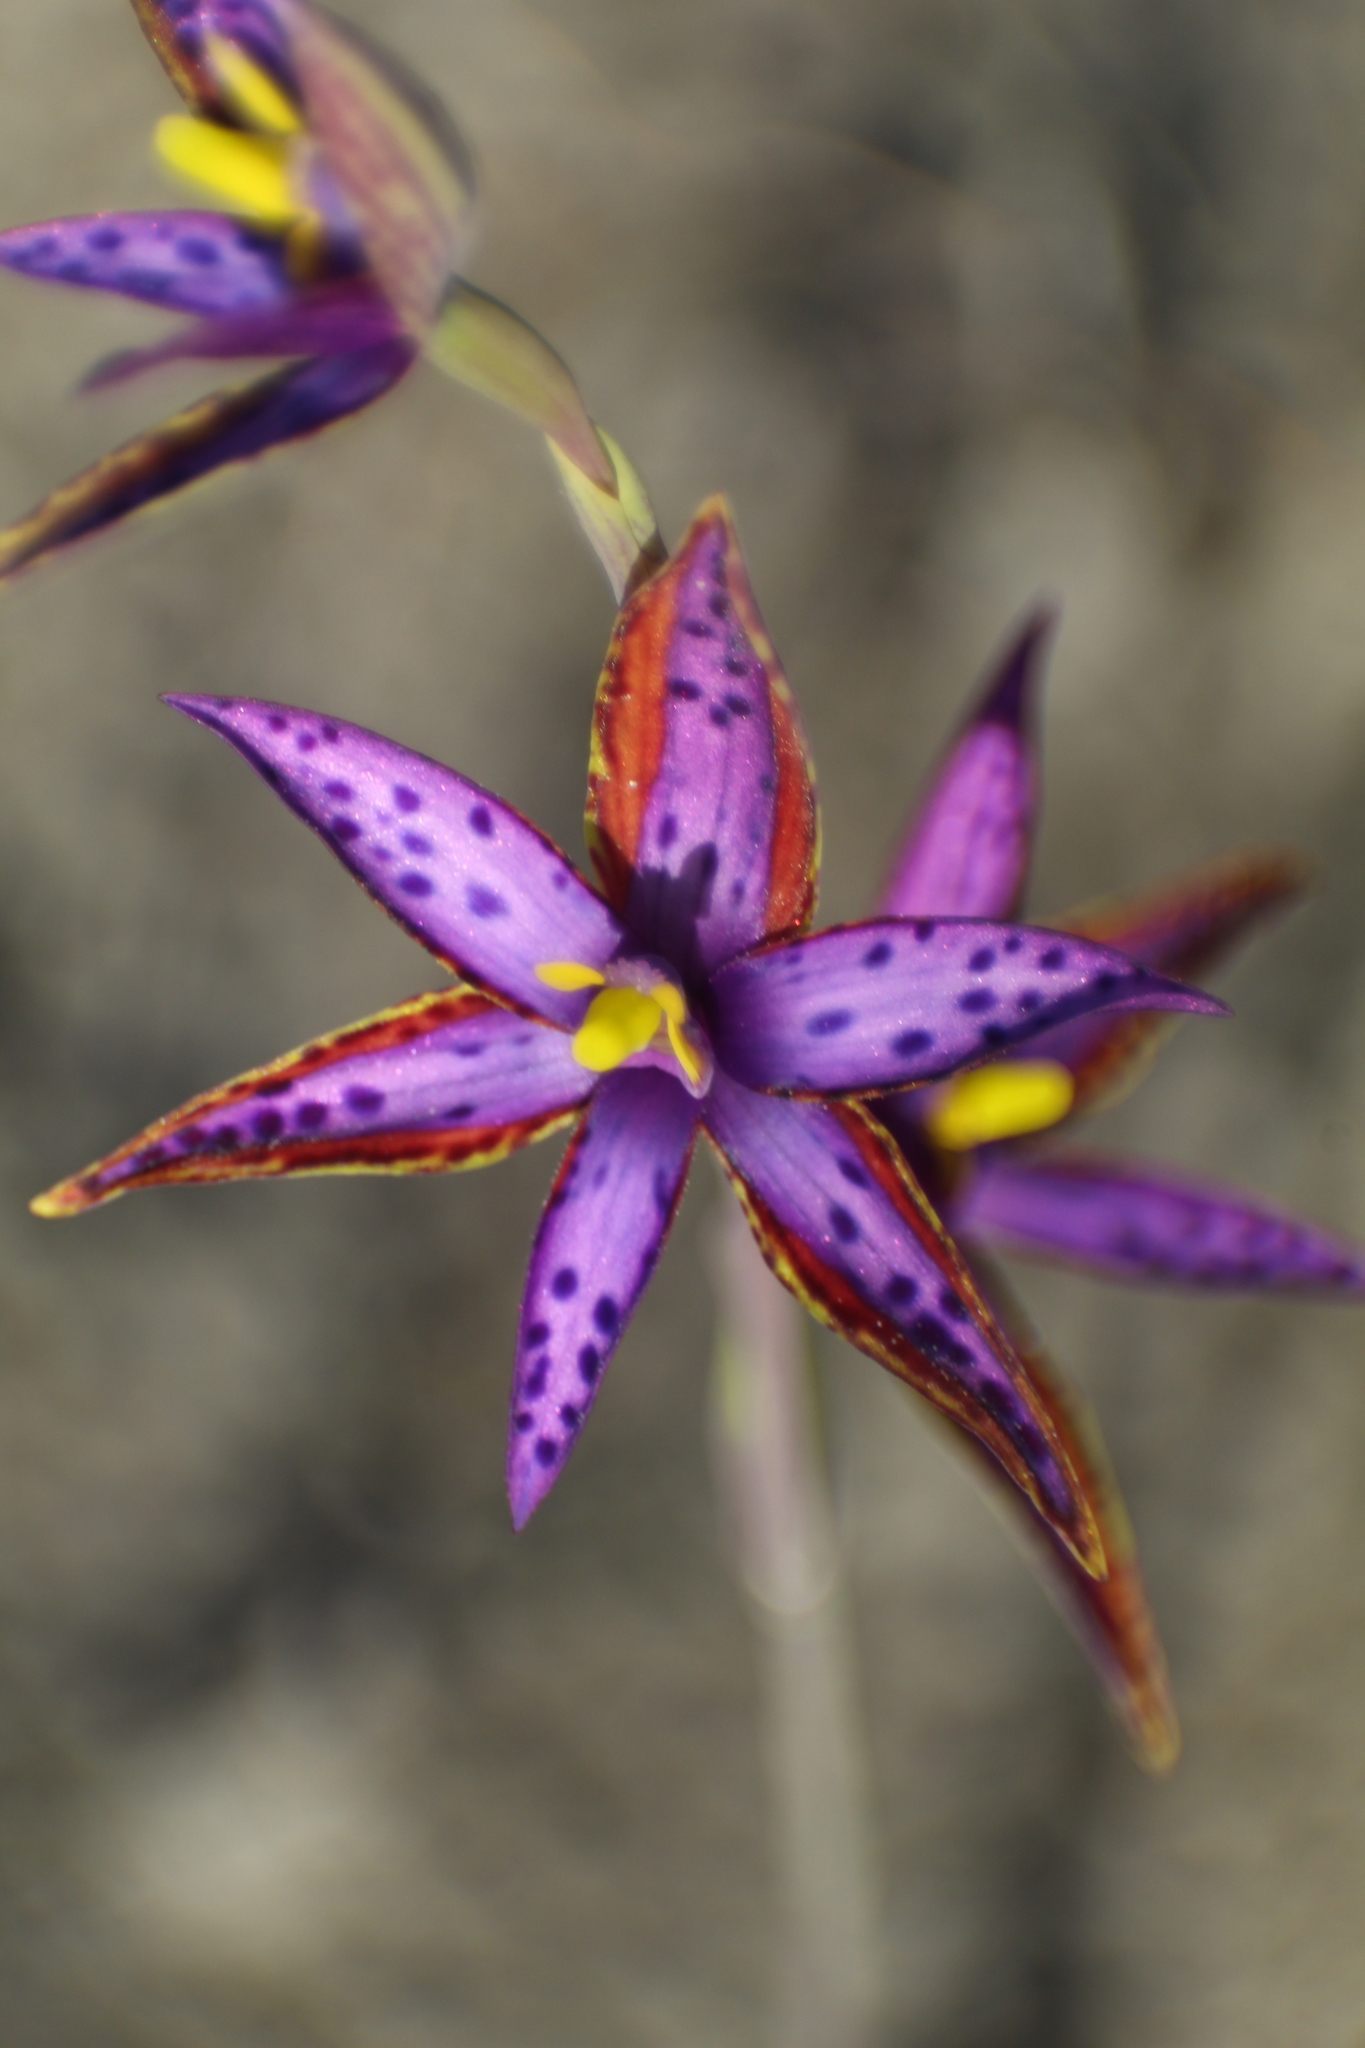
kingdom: Plantae
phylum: Tracheophyta
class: Liliopsida
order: Asparagales
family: Orchidaceae
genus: Thelymitra
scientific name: Thelymitra porphyrosticta
